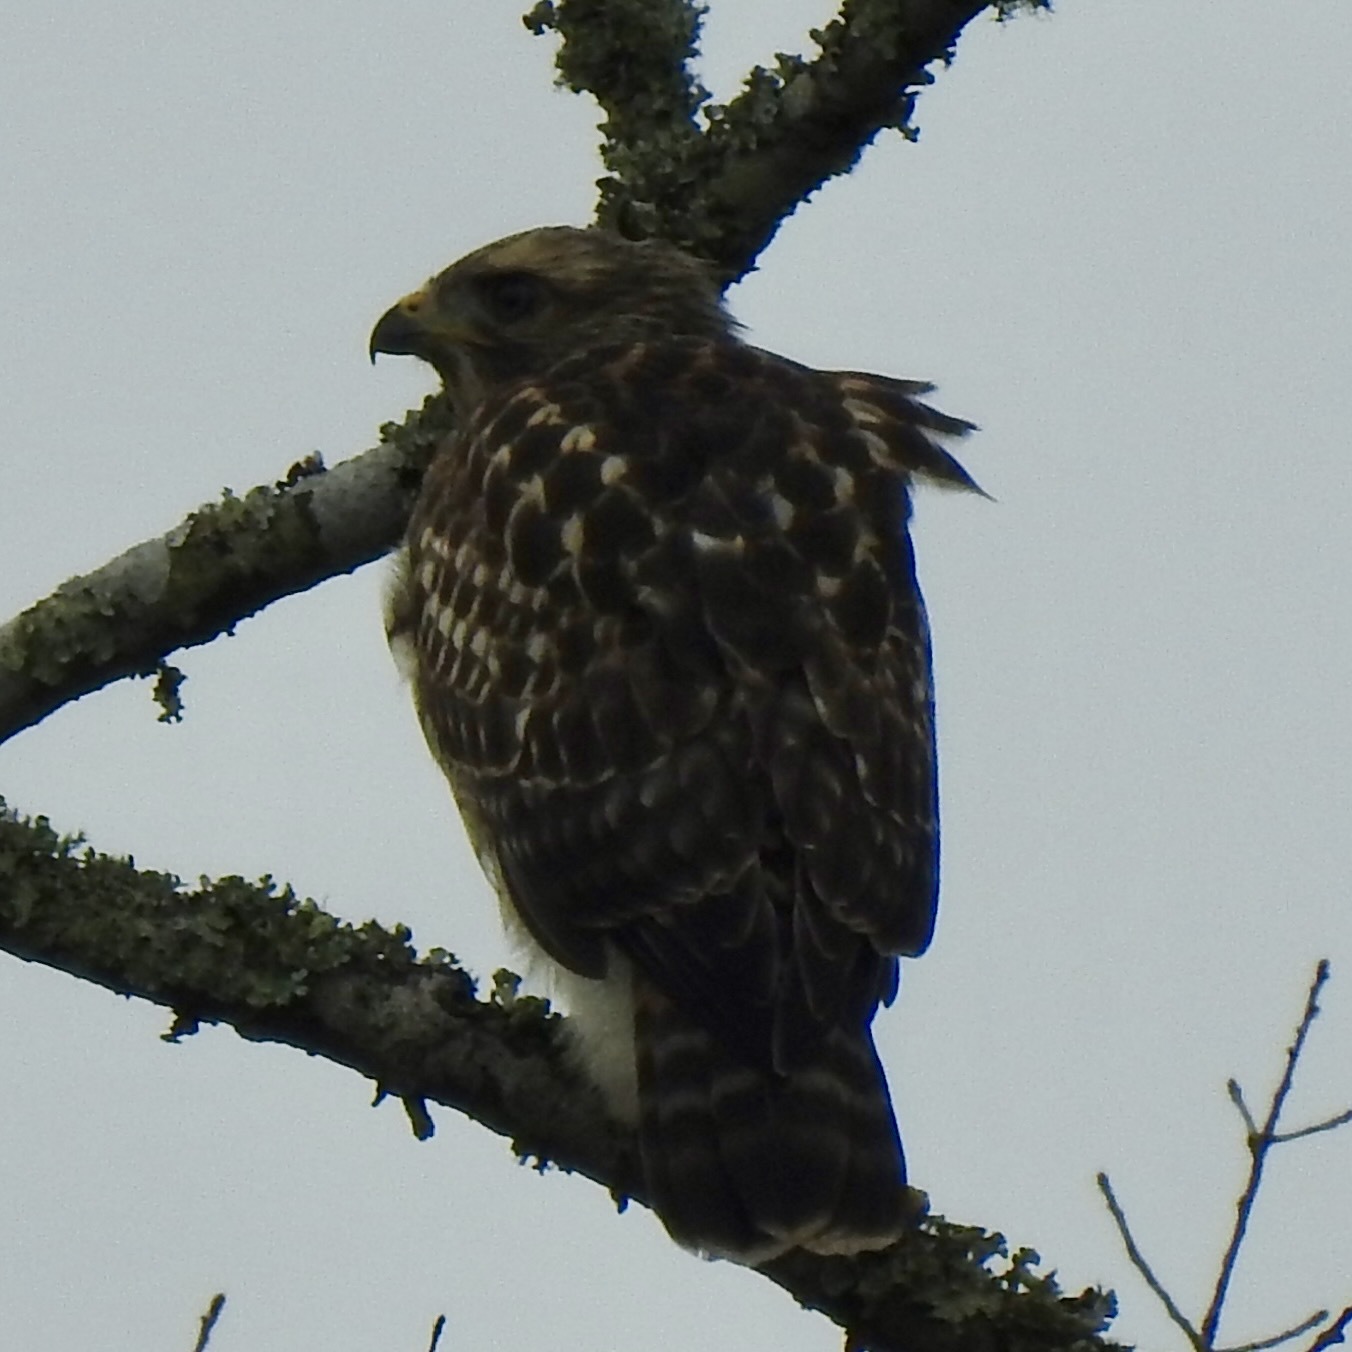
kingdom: Animalia
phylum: Chordata
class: Aves
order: Accipitriformes
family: Accipitridae
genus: Buteo
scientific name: Buteo lineatus
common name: Red-shouldered hawk
